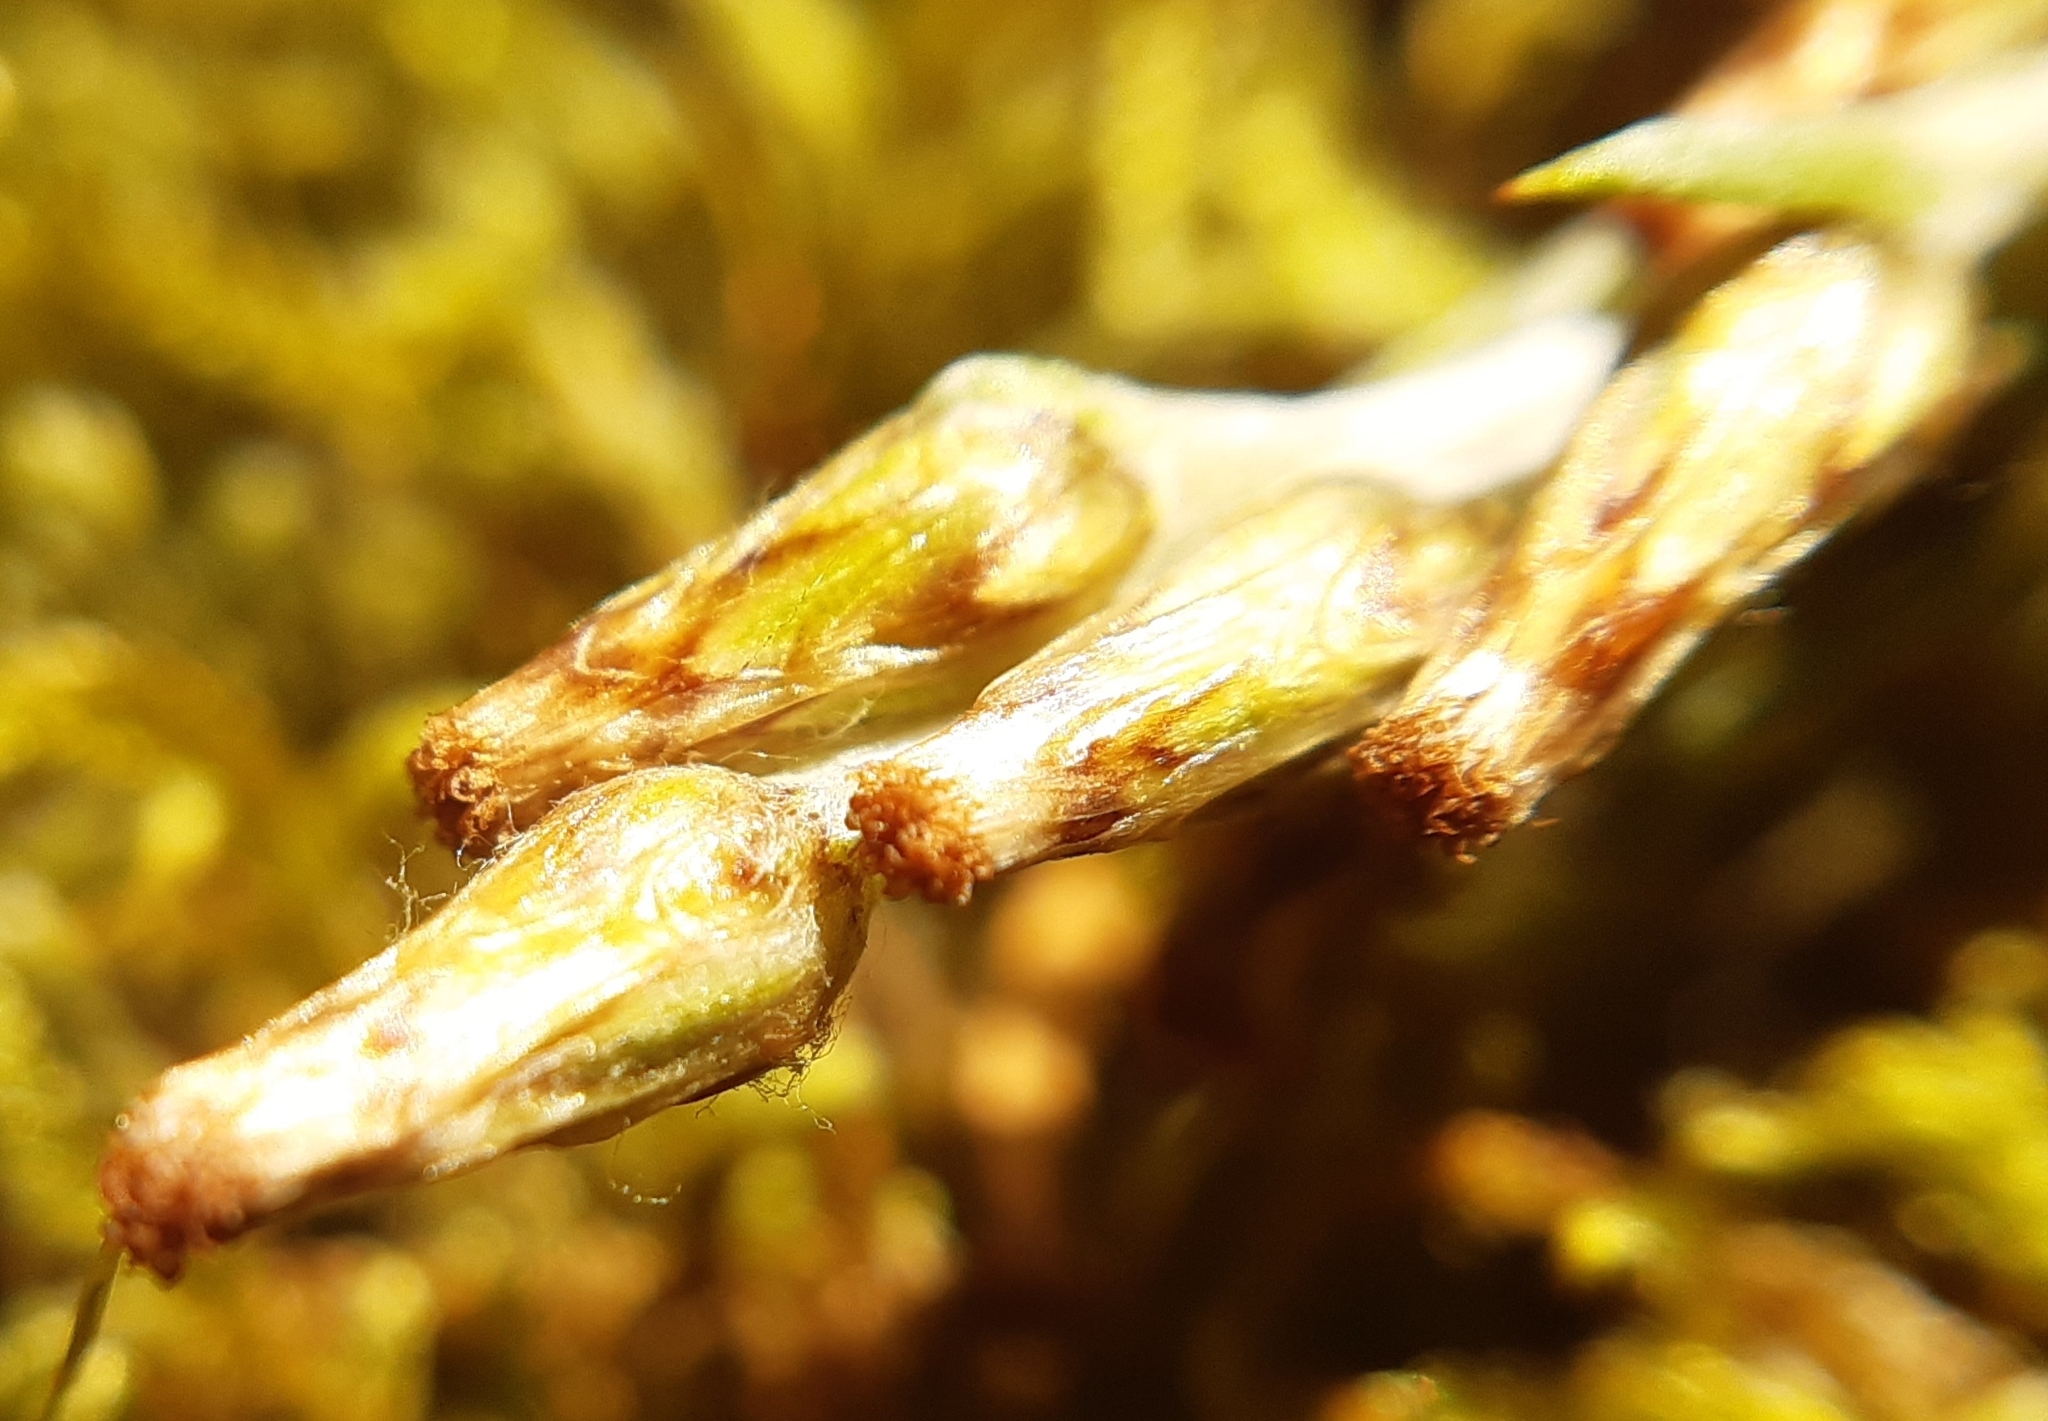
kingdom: Plantae
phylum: Tracheophyta
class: Magnoliopsida
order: Asterales
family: Asteraceae
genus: Omalotheca
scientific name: Omalotheca sylvatica
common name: Heath cudweed
